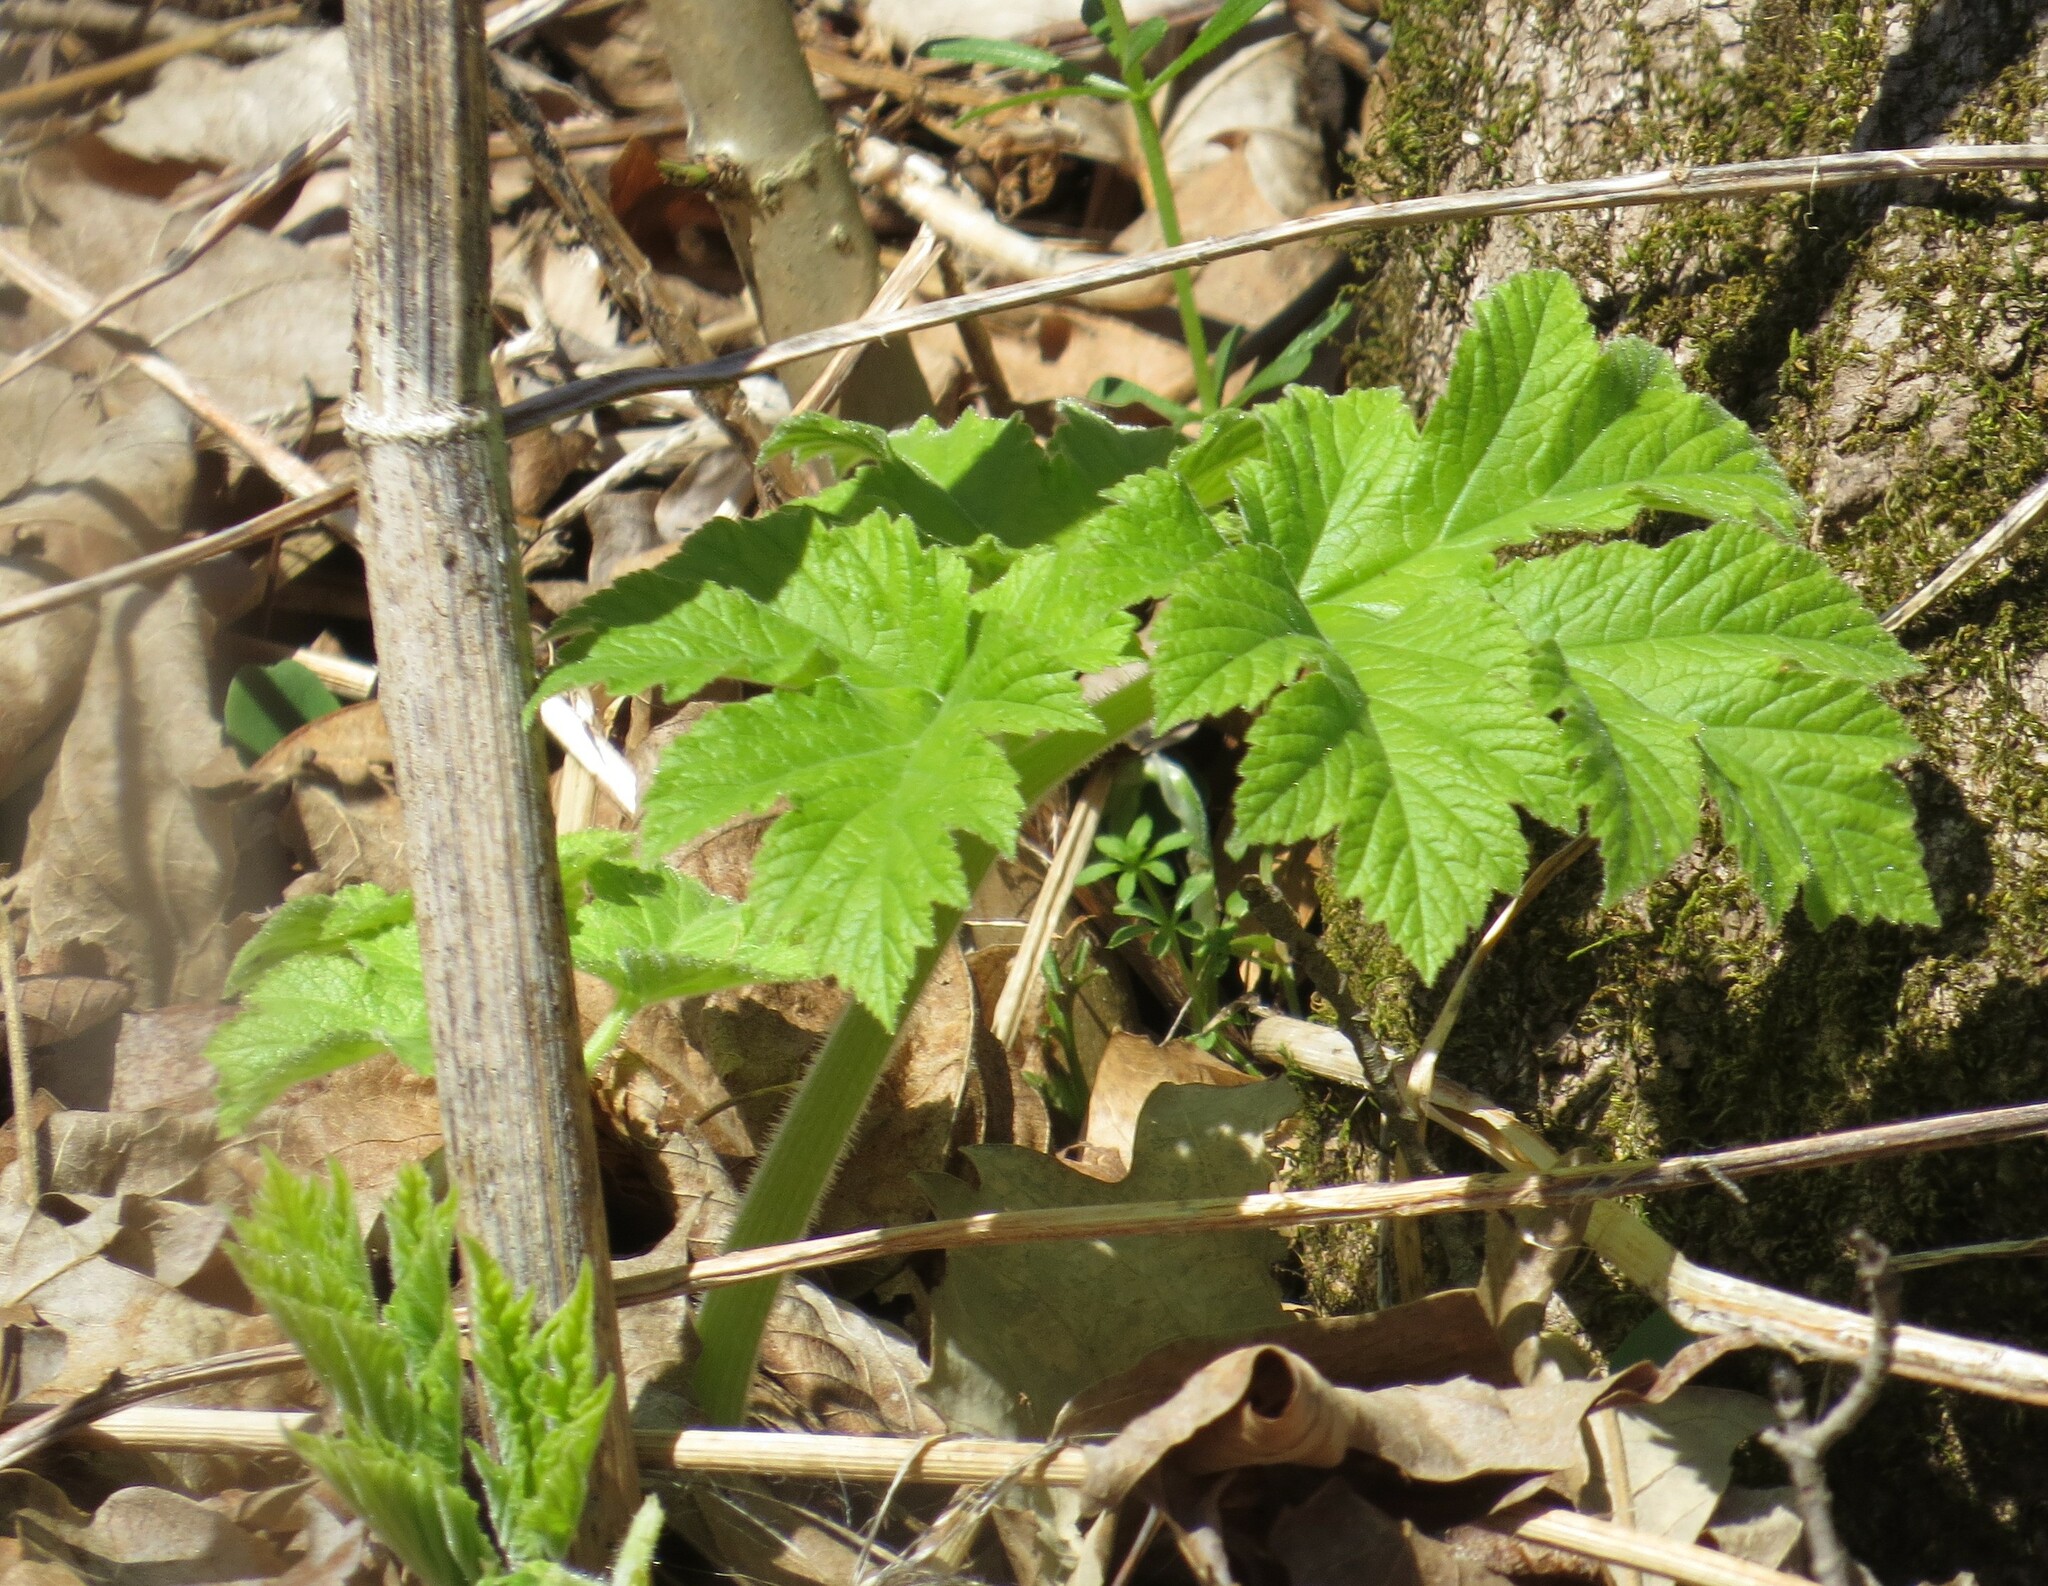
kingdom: Plantae
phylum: Tracheophyta
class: Magnoliopsida
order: Apiales
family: Apiaceae
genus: Heracleum
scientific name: Heracleum maximum
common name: American cow parsnip
